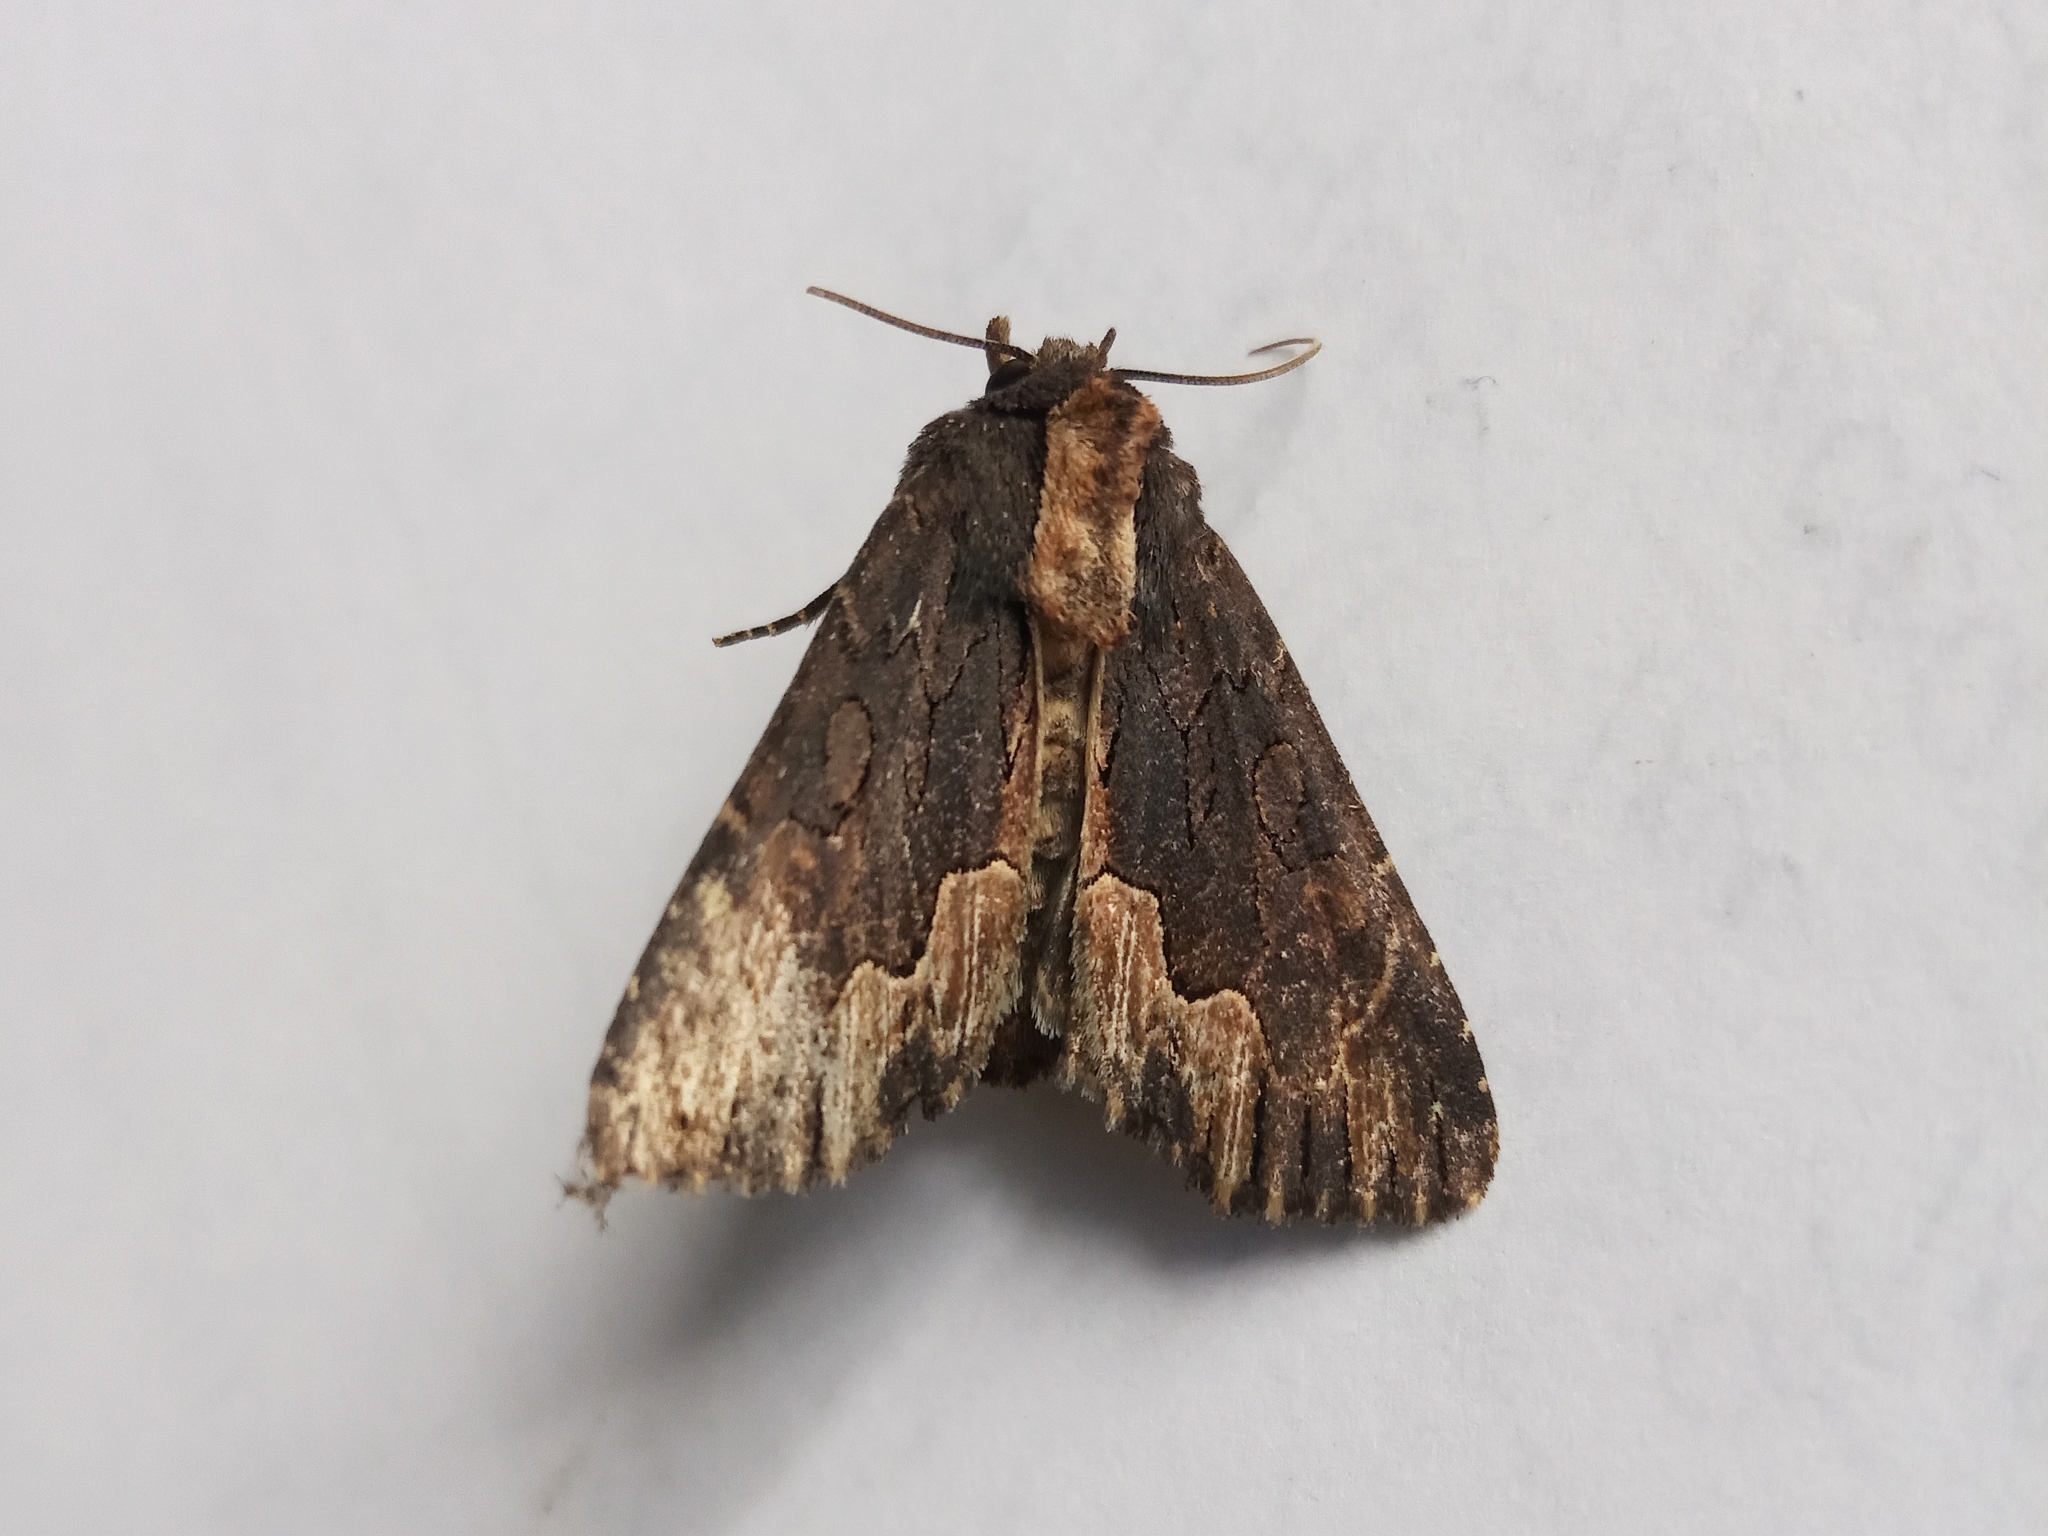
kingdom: Animalia
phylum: Arthropoda
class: Insecta
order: Lepidoptera
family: Noctuidae
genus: Dypterygia
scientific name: Dypterygia scabriuscula
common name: Bird's wing
